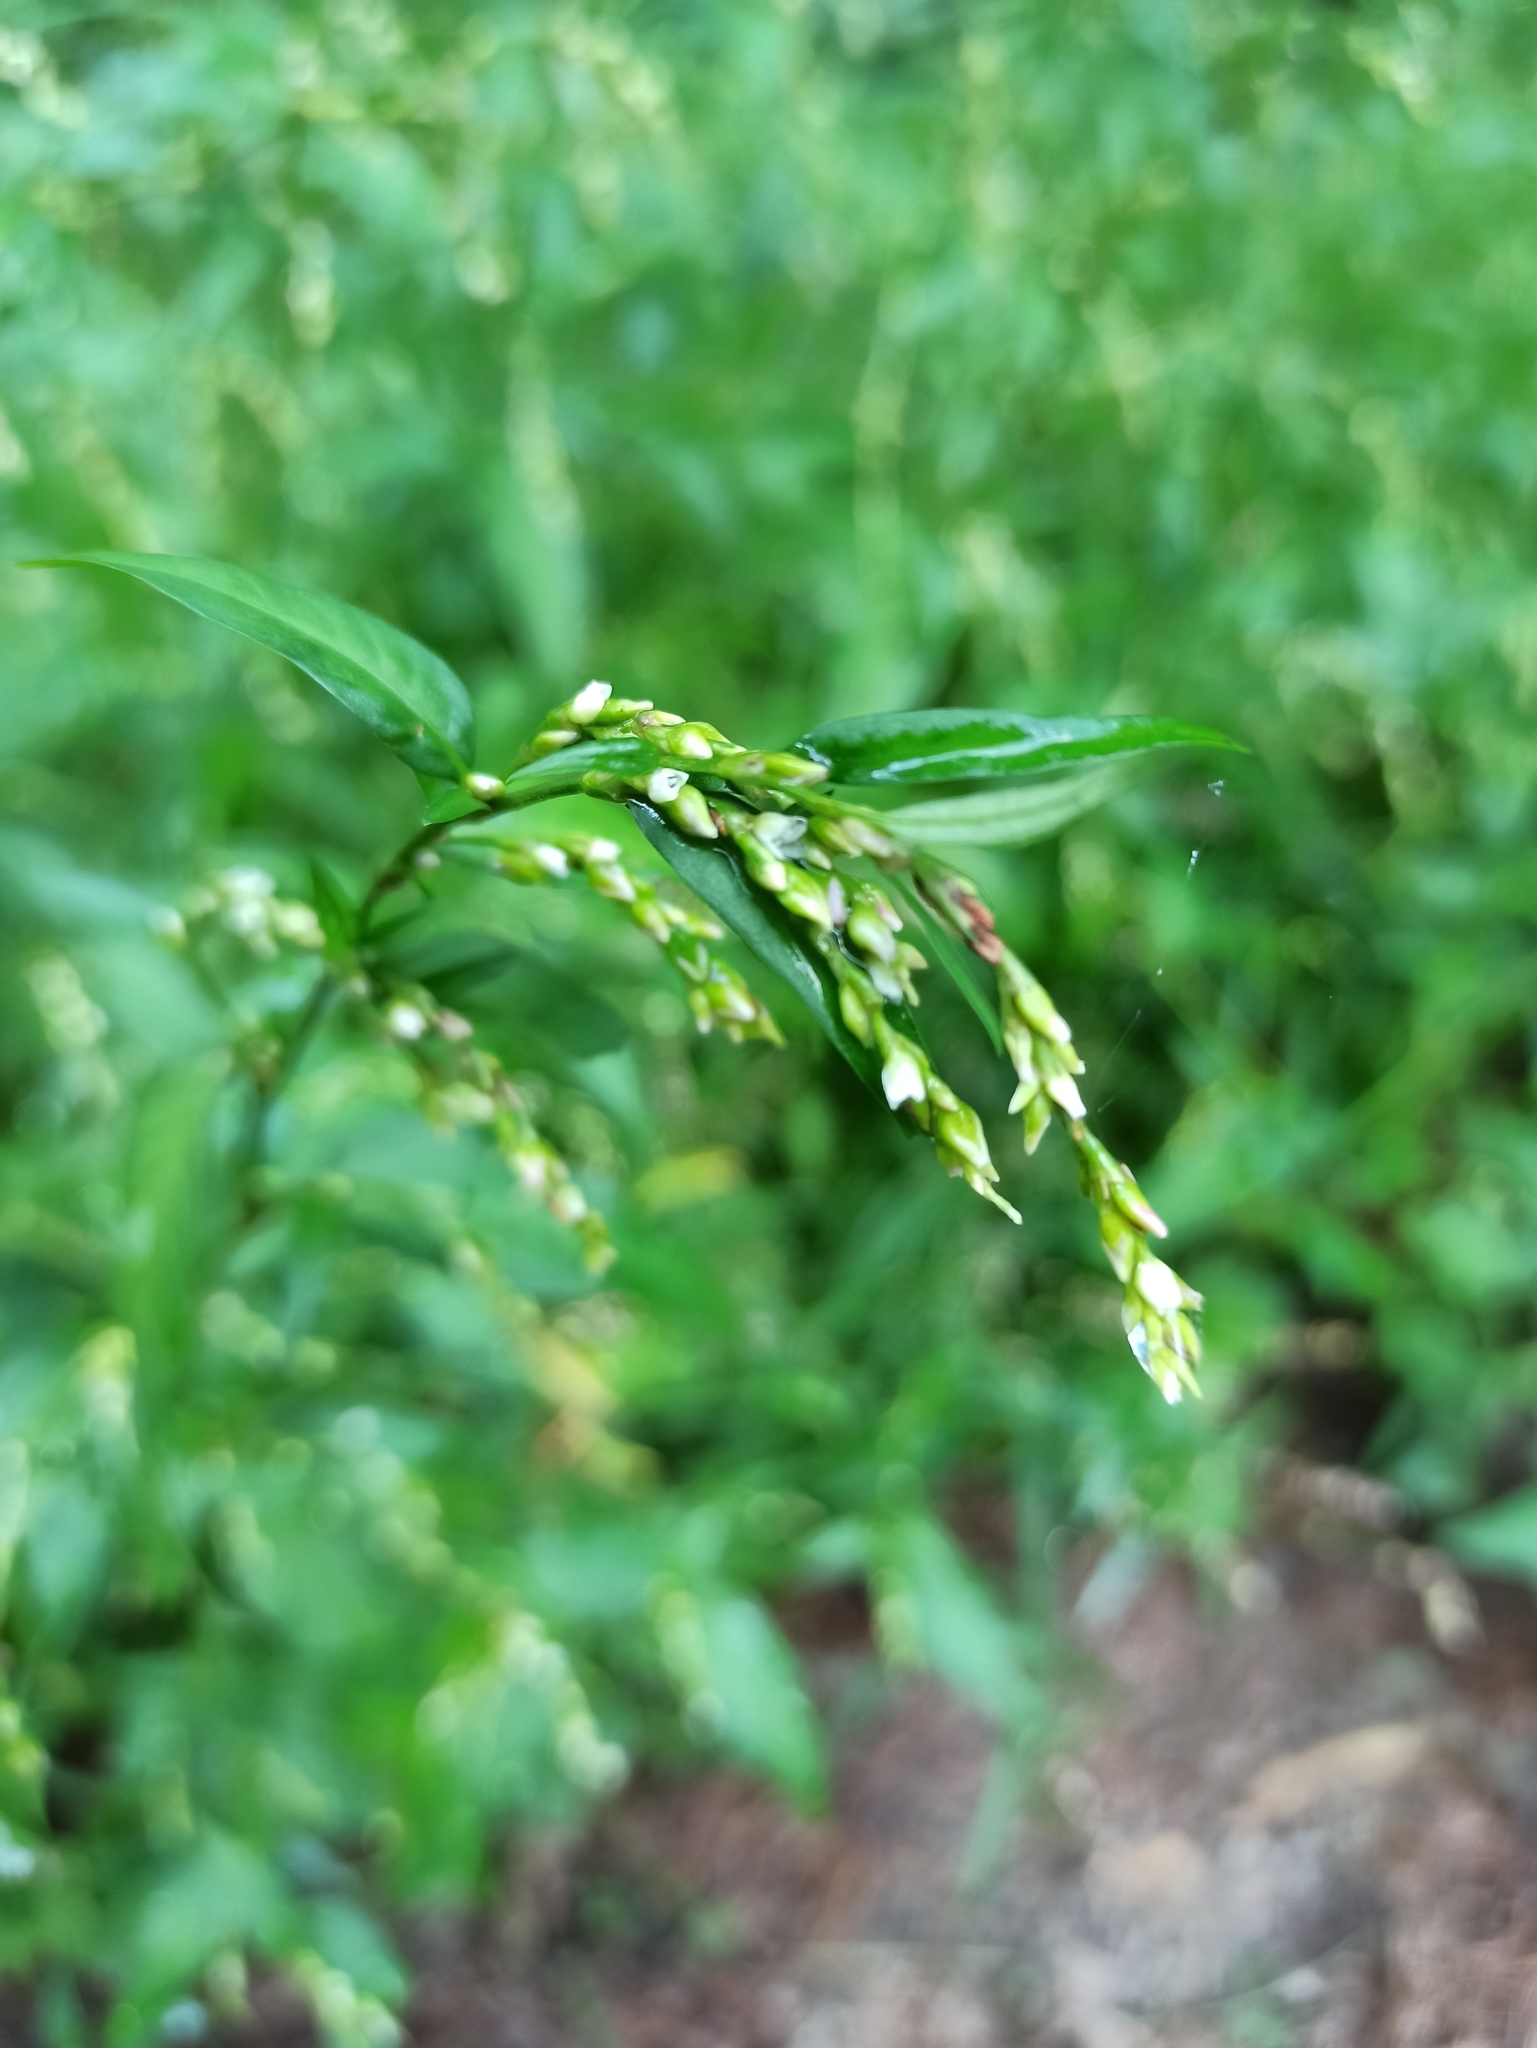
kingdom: Plantae
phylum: Tracheophyta
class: Magnoliopsida
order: Caryophyllales
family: Polygonaceae
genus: Persicaria
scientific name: Persicaria hydropiper
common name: Water-pepper
